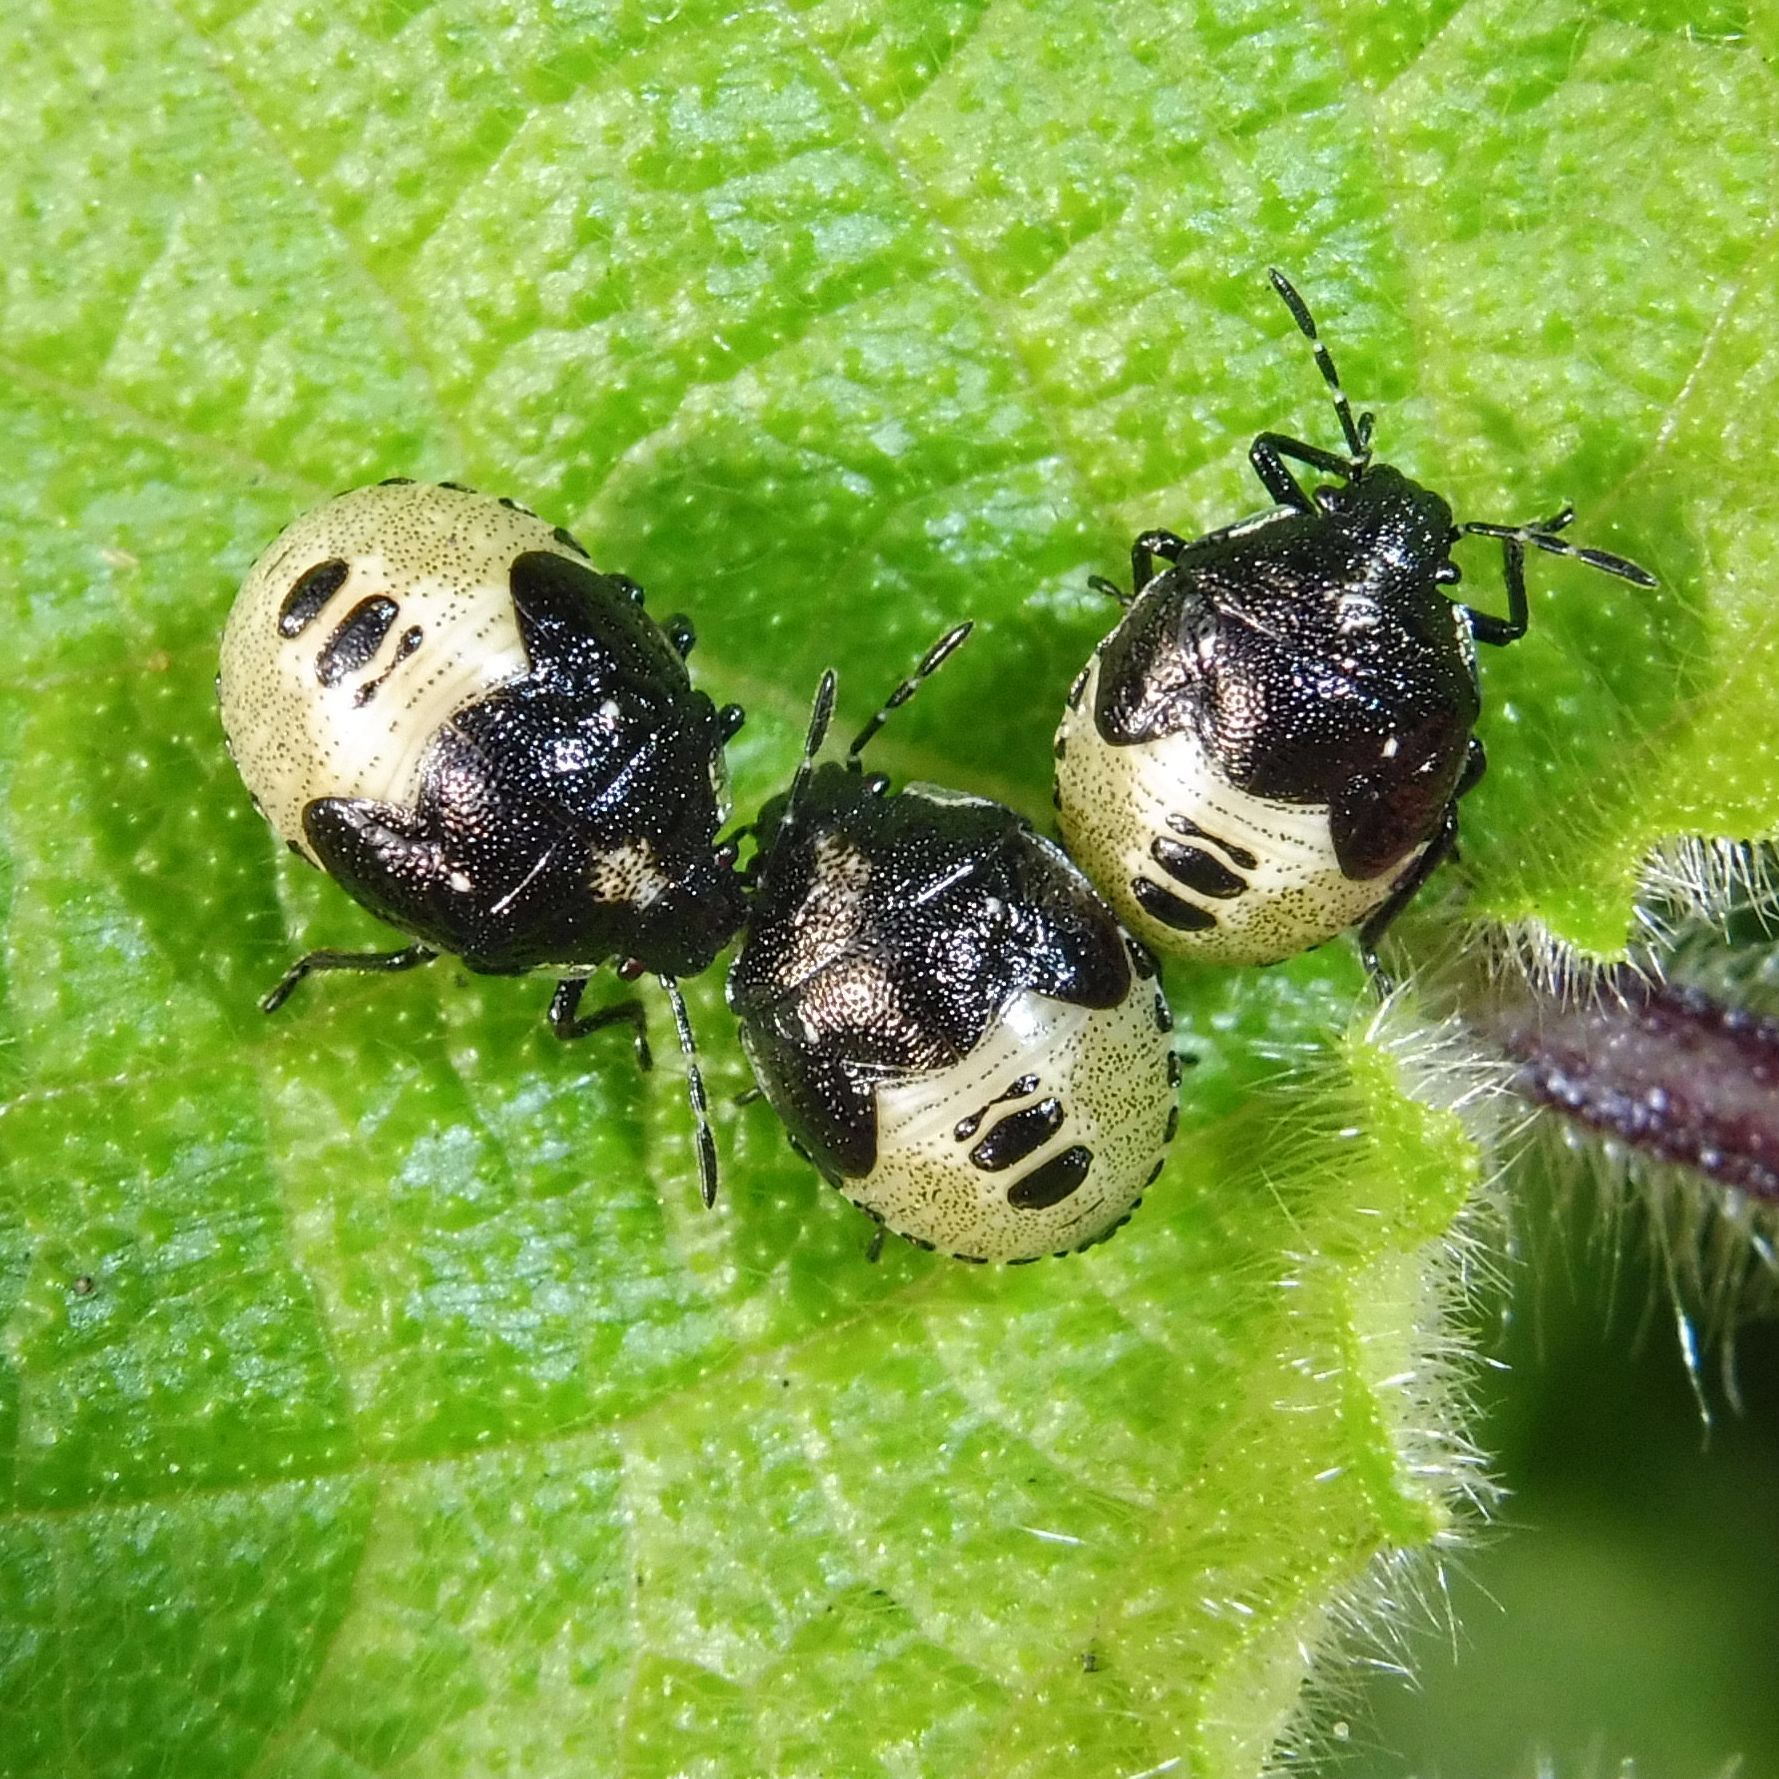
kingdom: Animalia
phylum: Arthropoda
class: Insecta
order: Hemiptera
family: Pentatomidae
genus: Eysarcoris
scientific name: Eysarcoris venustissimus
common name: Woundwort shieldbug
